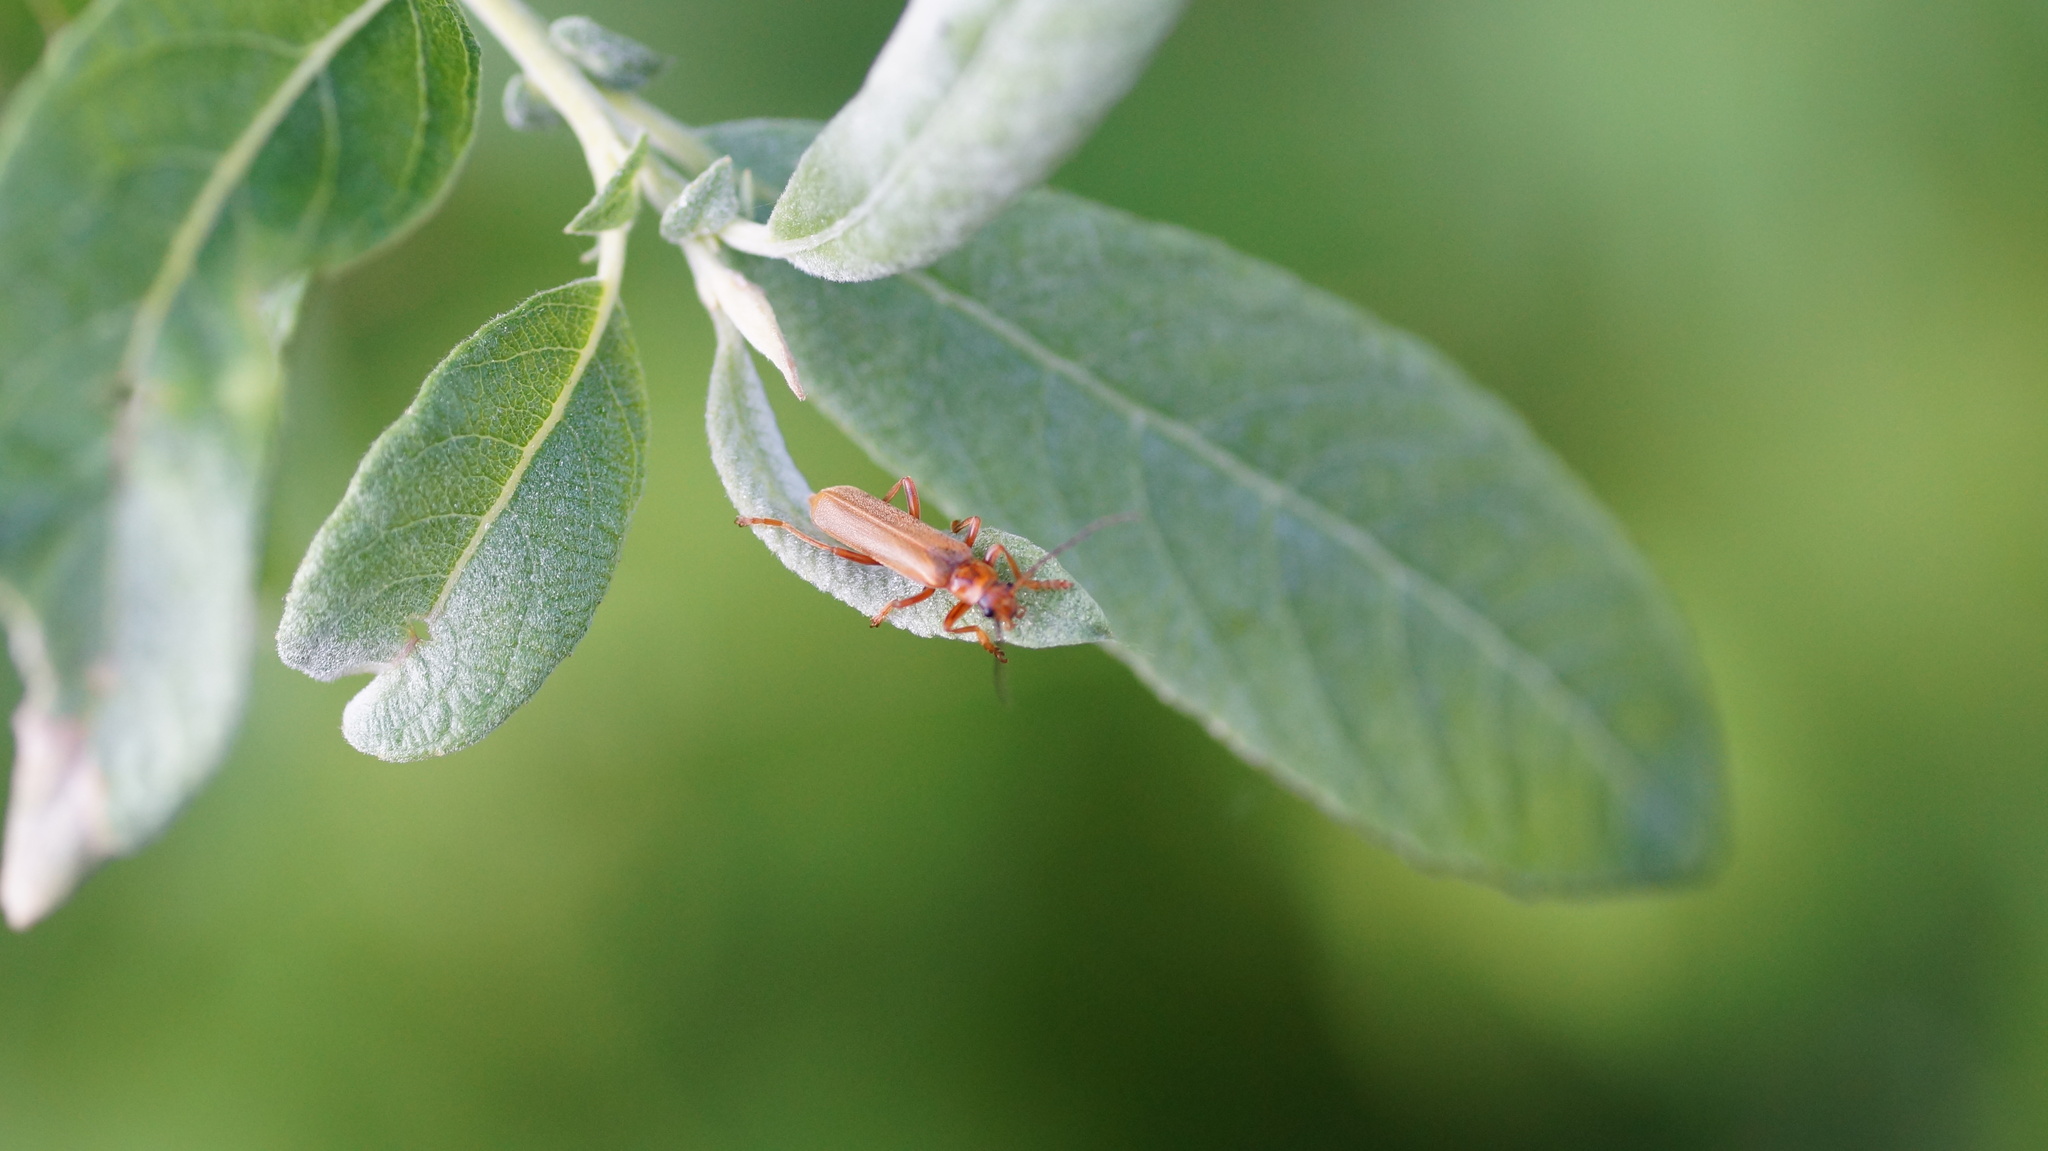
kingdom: Animalia
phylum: Arthropoda
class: Insecta
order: Coleoptera
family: Cantharidae
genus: Cantharis
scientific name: Cantharis rufa
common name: Red-spotted soldier beetle
